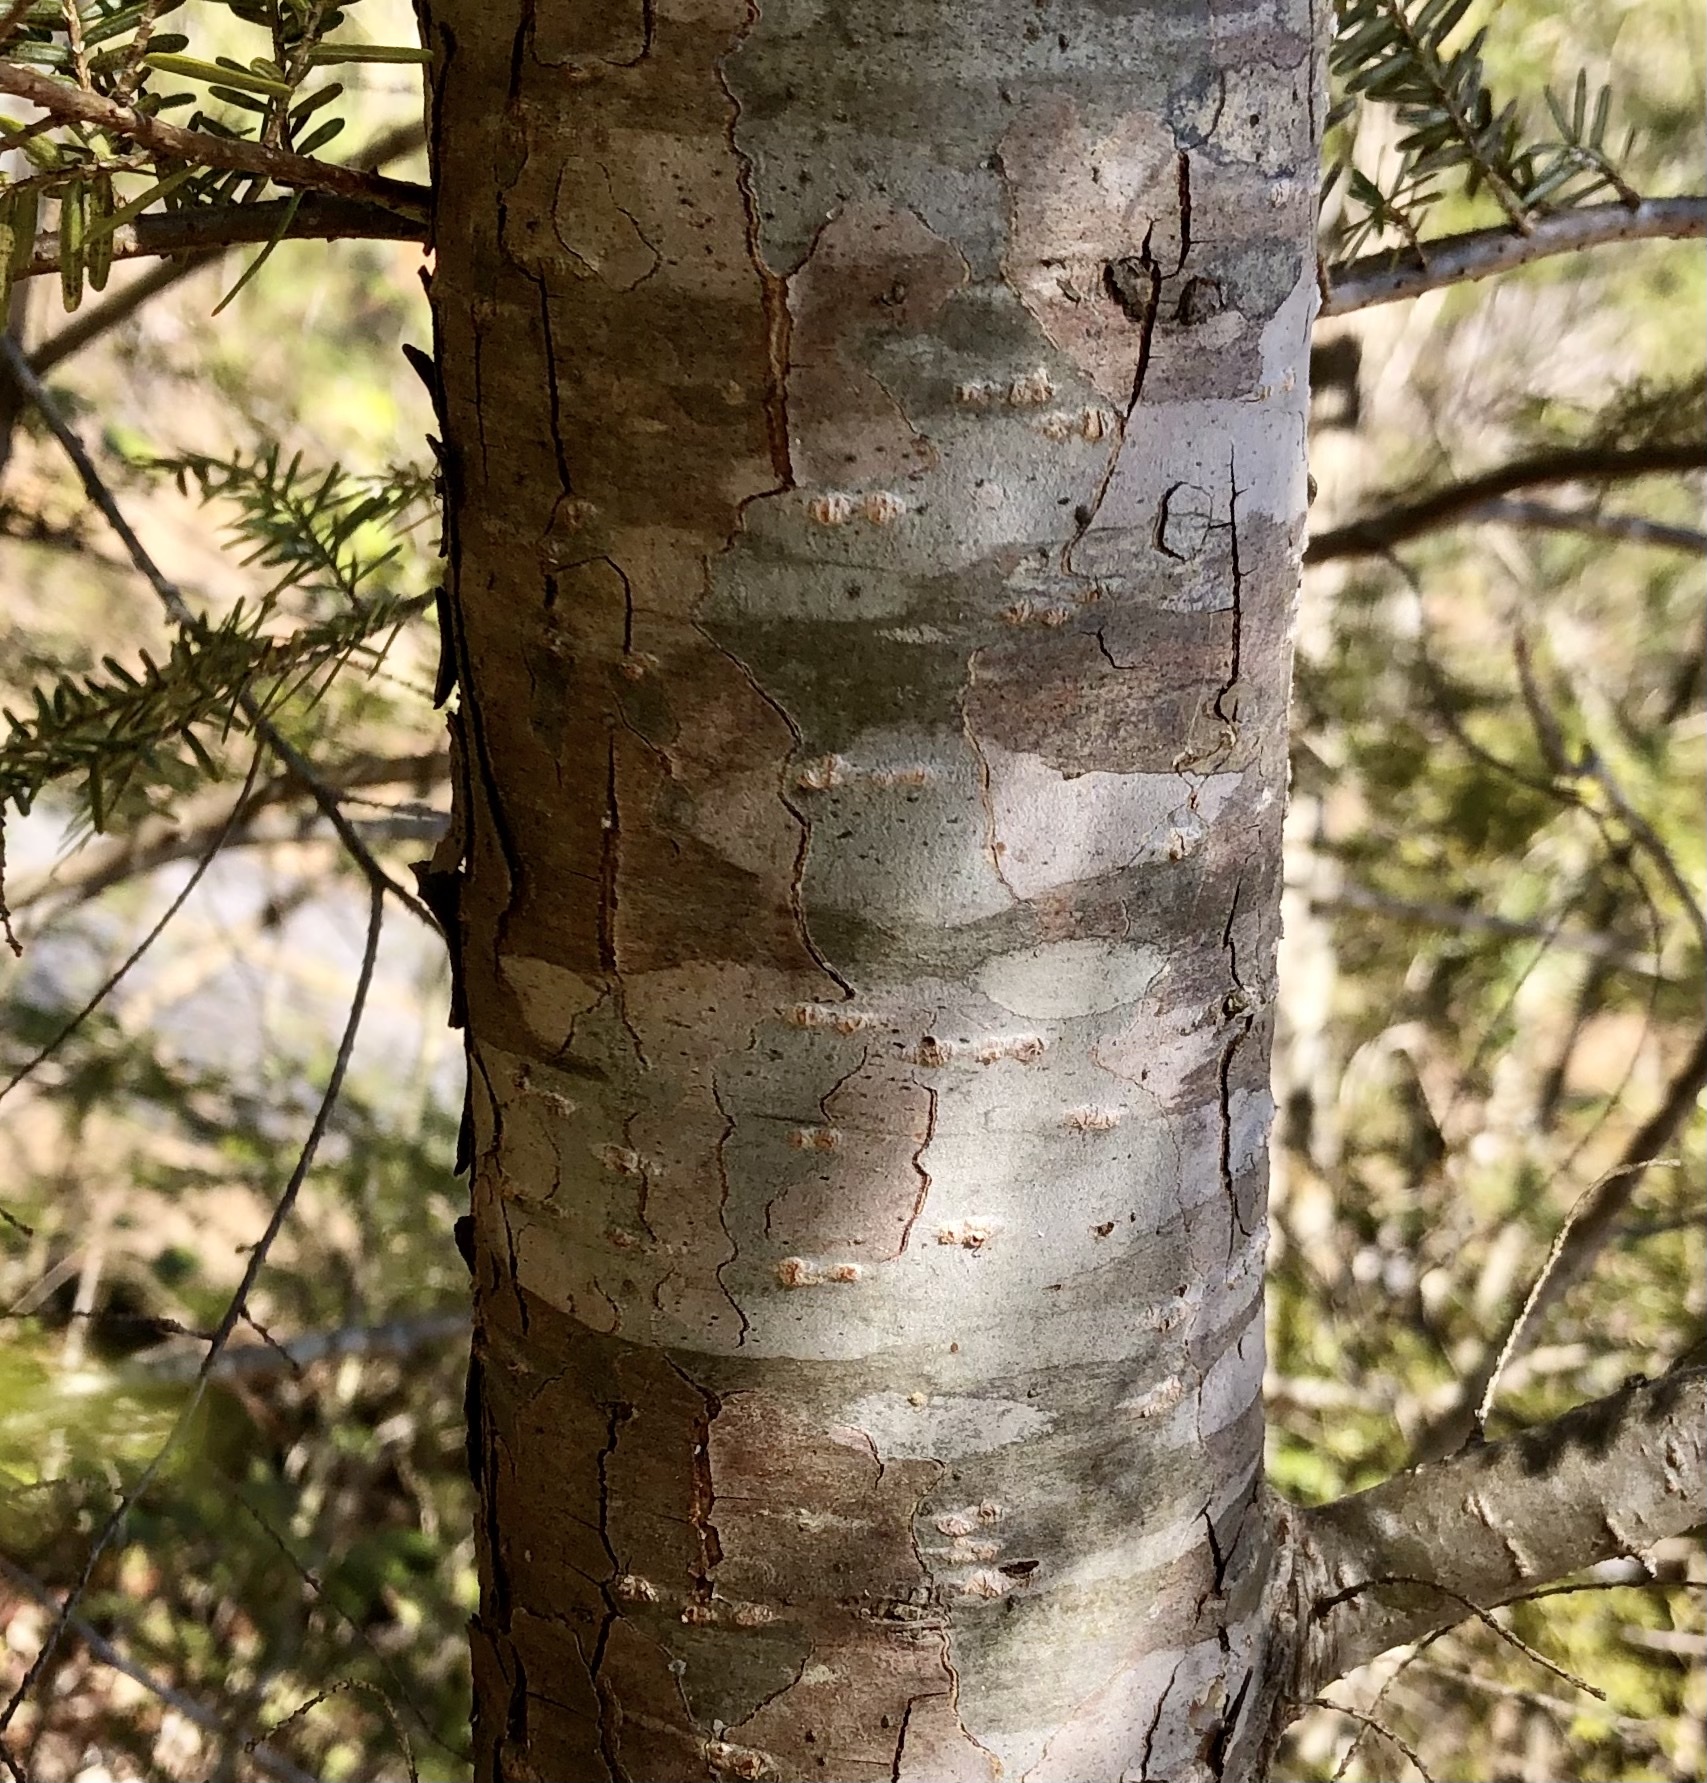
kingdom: Plantae
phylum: Tracheophyta
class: Pinopsida
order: Pinales
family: Pinaceae
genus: Tsuga
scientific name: Tsuga canadensis
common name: Eastern hemlock
